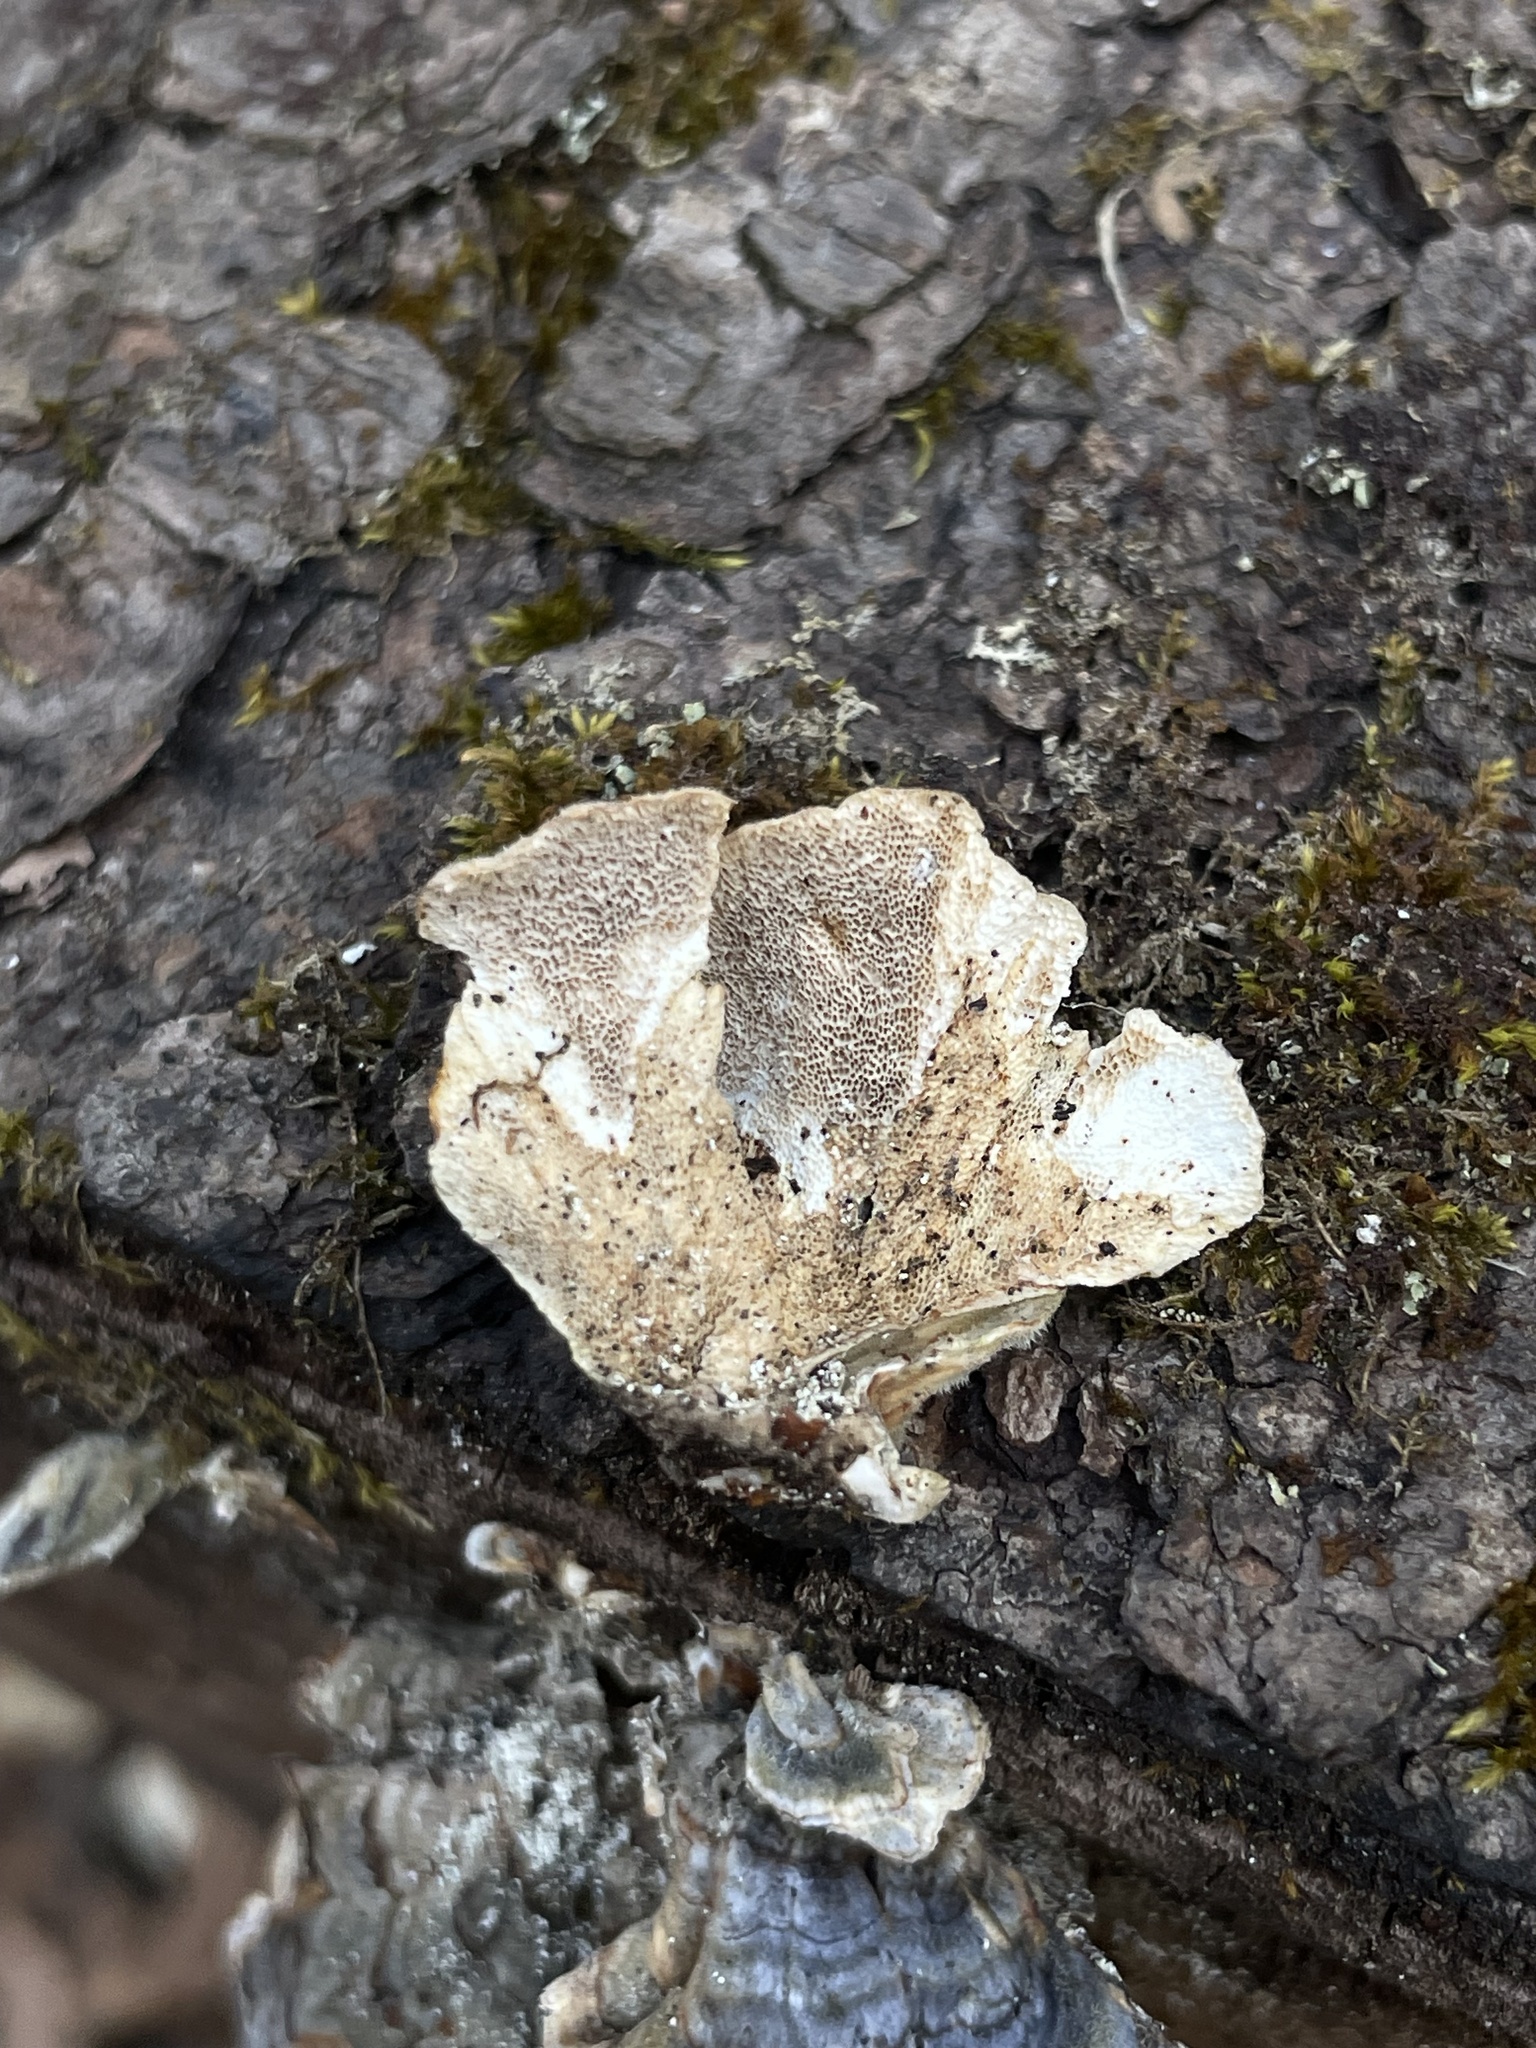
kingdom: Fungi
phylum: Basidiomycota
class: Agaricomycetes
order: Polyporales
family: Polyporaceae
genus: Trametes
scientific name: Trametes versicolor
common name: Turkeytail
